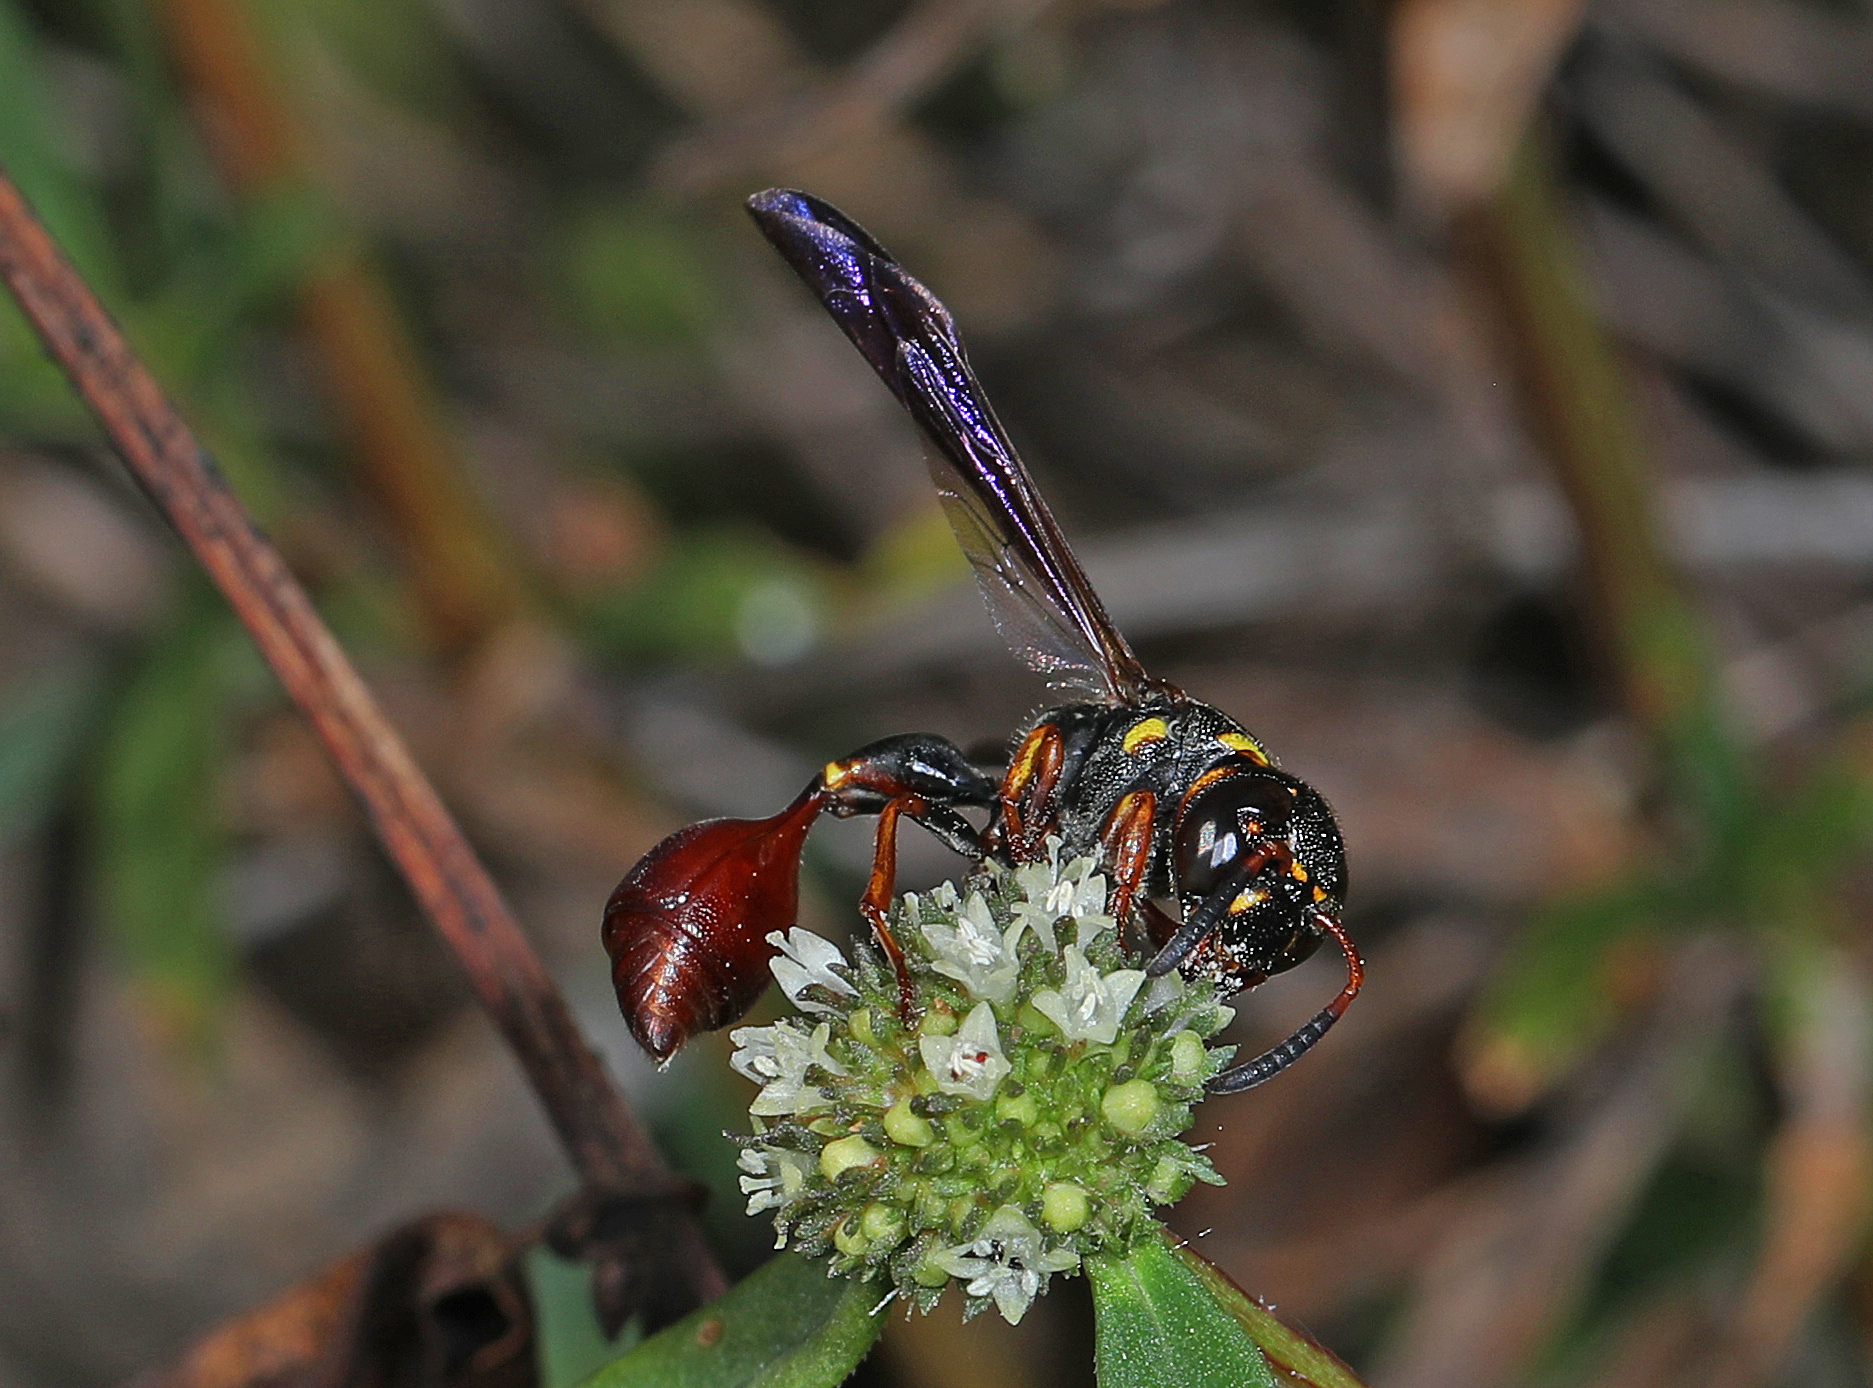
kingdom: Animalia
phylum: Arthropoda
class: Insecta
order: Hymenoptera
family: Eumenidae
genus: Zethus
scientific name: Zethus slossonae
